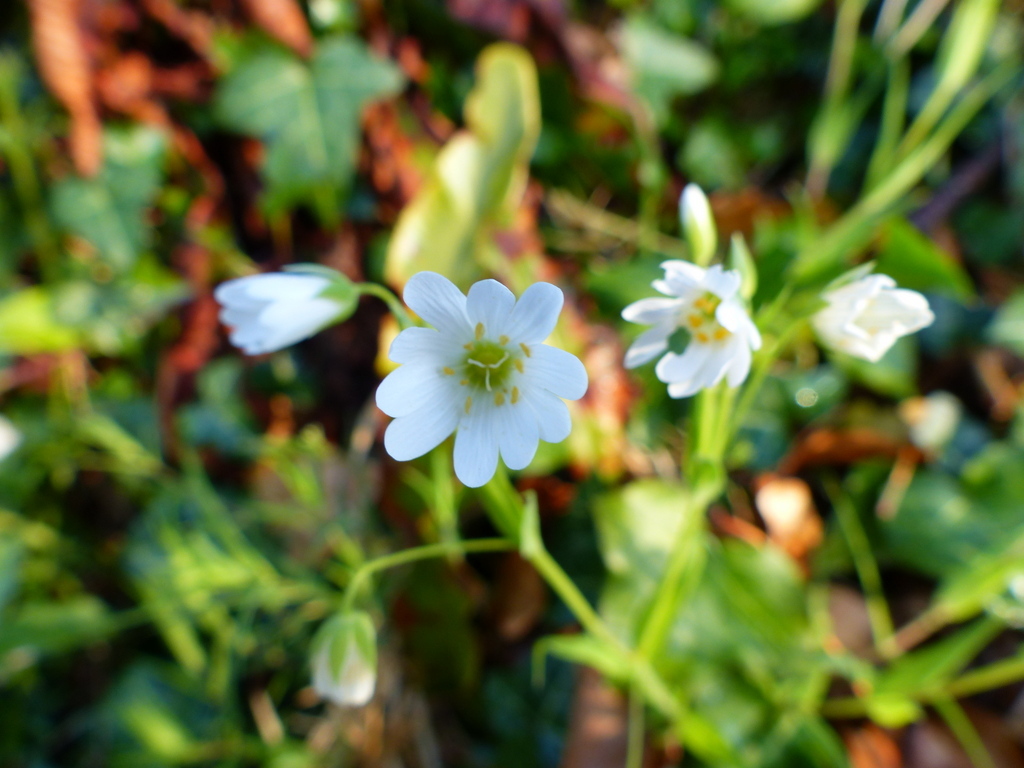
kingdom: Plantae
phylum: Tracheophyta
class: Magnoliopsida
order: Caryophyllales
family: Caryophyllaceae
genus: Rabelera
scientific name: Rabelera holostea
